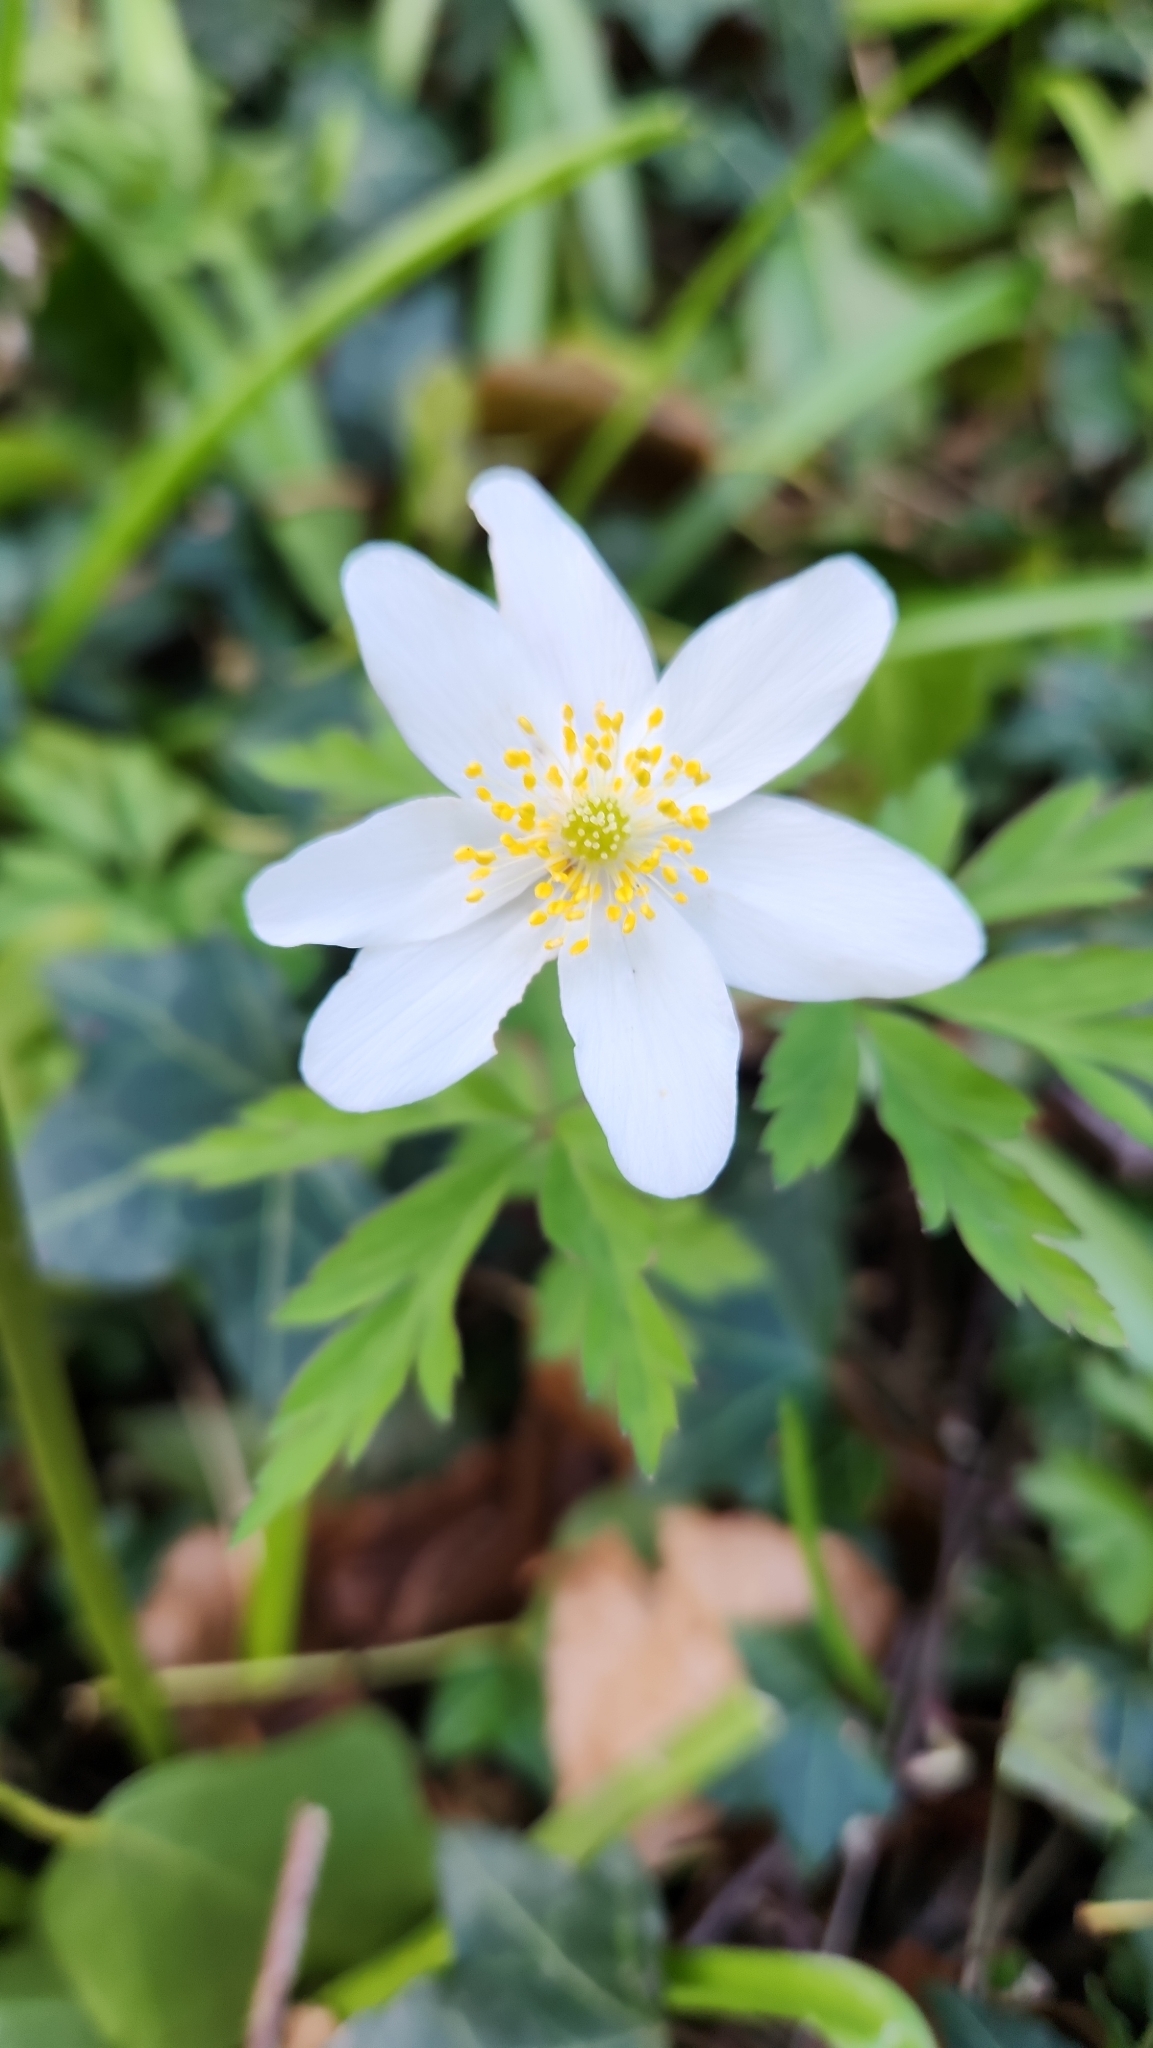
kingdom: Plantae
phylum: Tracheophyta
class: Magnoliopsida
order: Ranunculales
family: Ranunculaceae
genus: Anemone
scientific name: Anemone nemorosa
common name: Wood anemone
